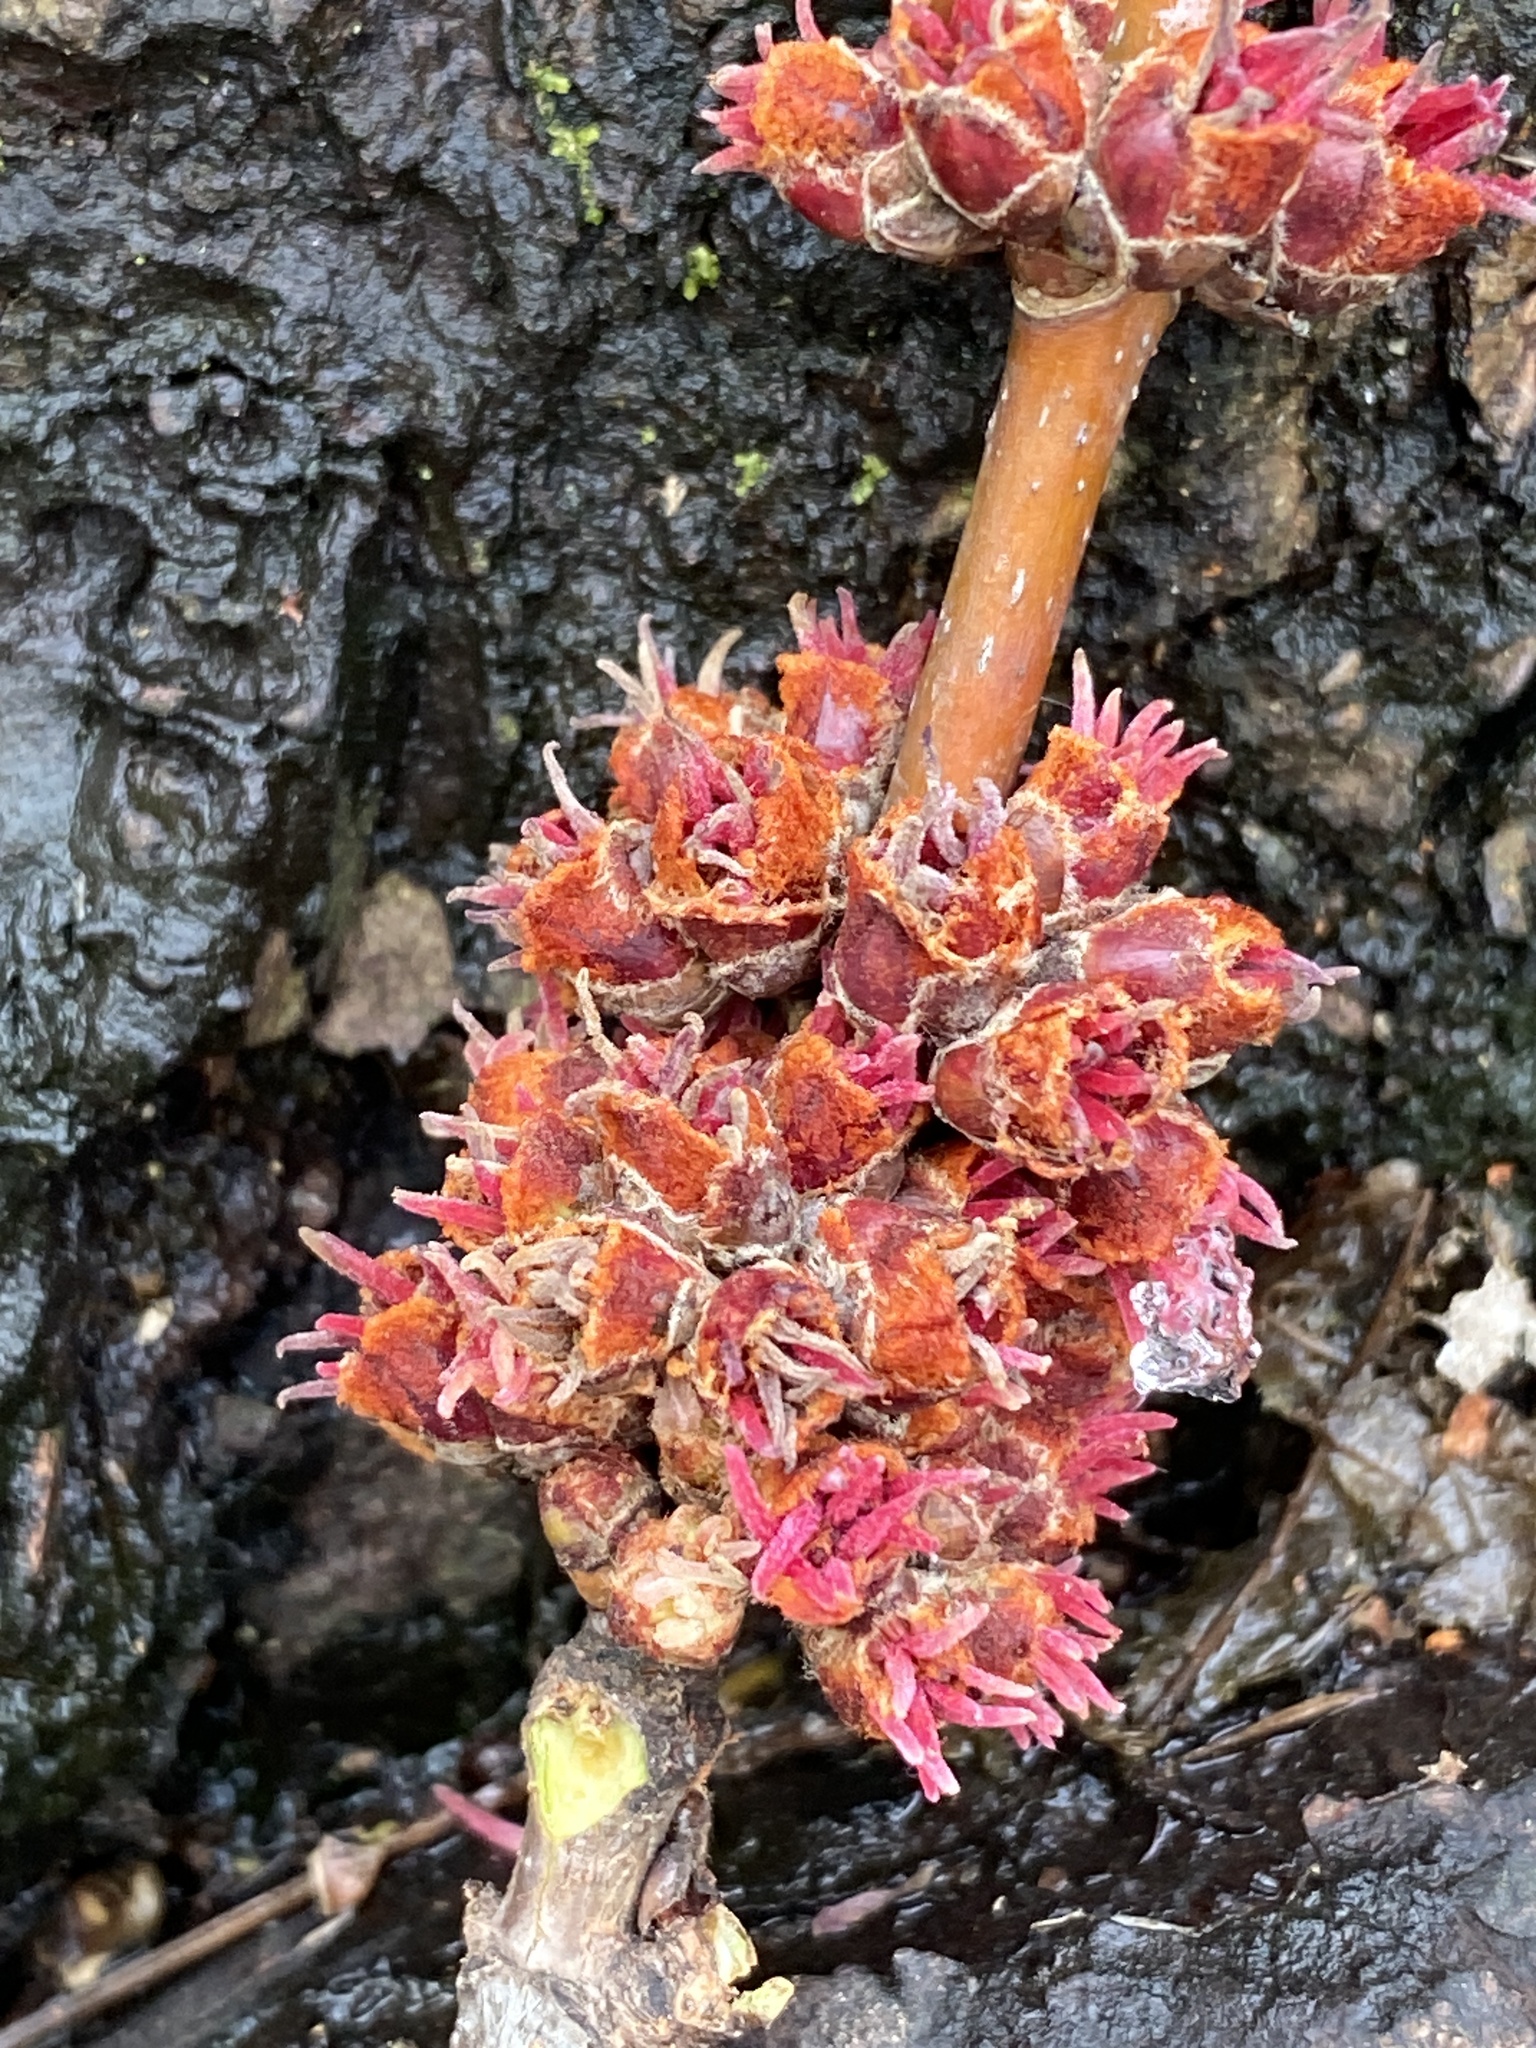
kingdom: Plantae
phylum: Tracheophyta
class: Magnoliopsida
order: Sapindales
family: Sapindaceae
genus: Acer
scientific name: Acer saccharinum
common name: Silver maple
